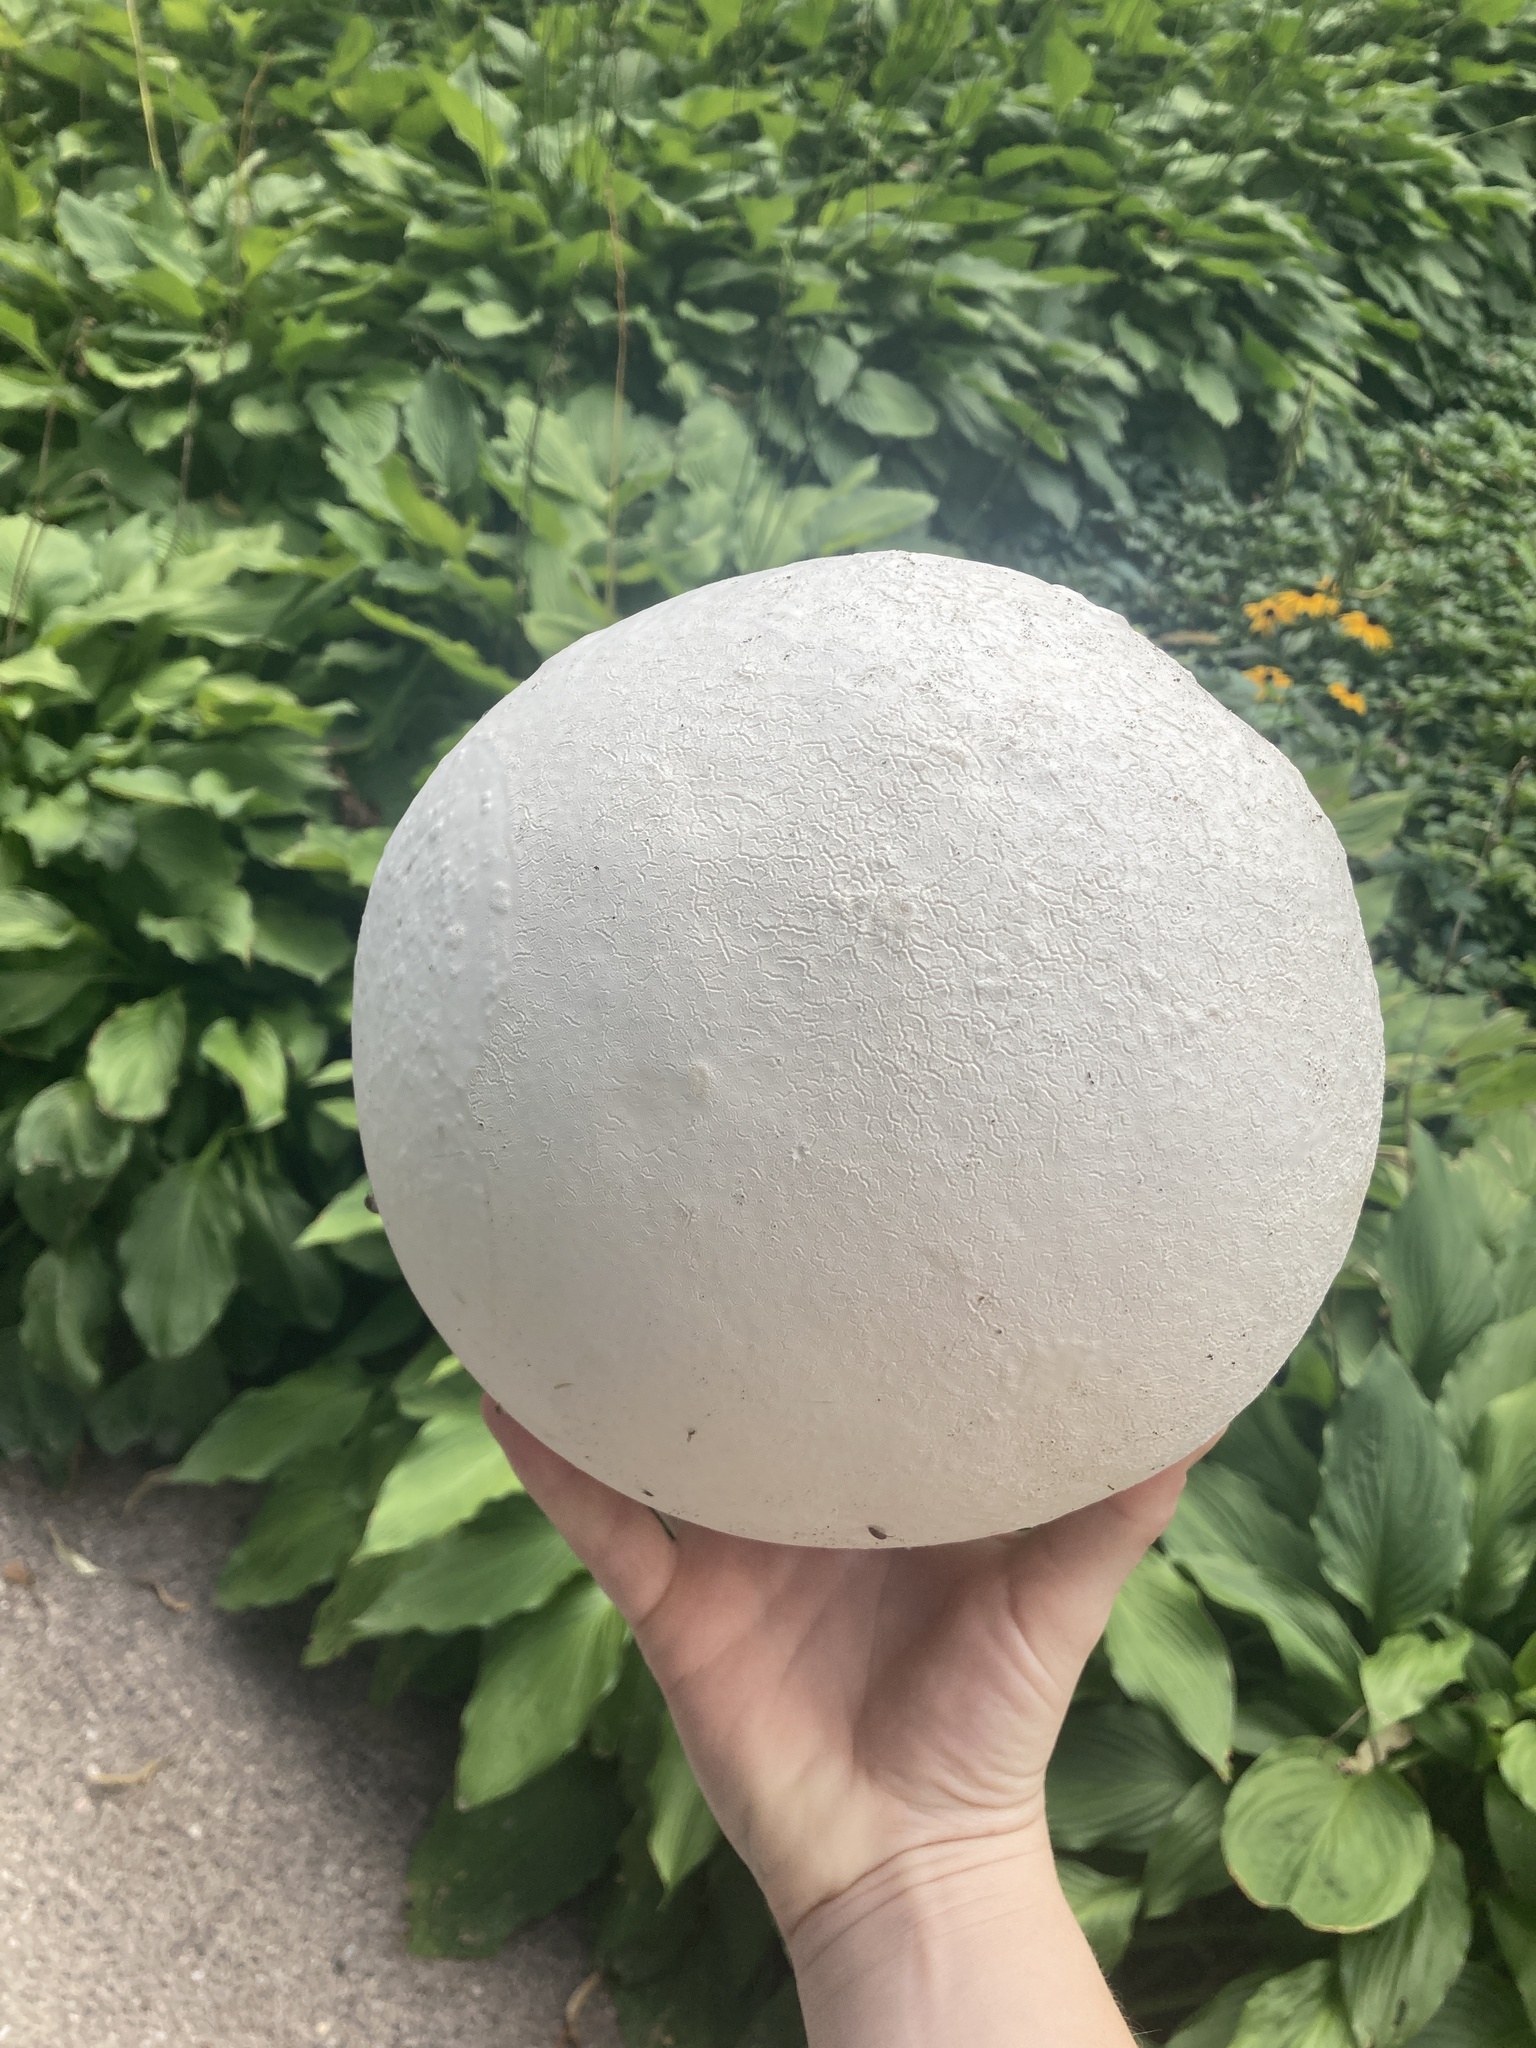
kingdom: Fungi
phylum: Basidiomycota
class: Agaricomycetes
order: Agaricales
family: Lycoperdaceae
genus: Calvatia
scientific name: Calvatia gigantea
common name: Giant puffball
